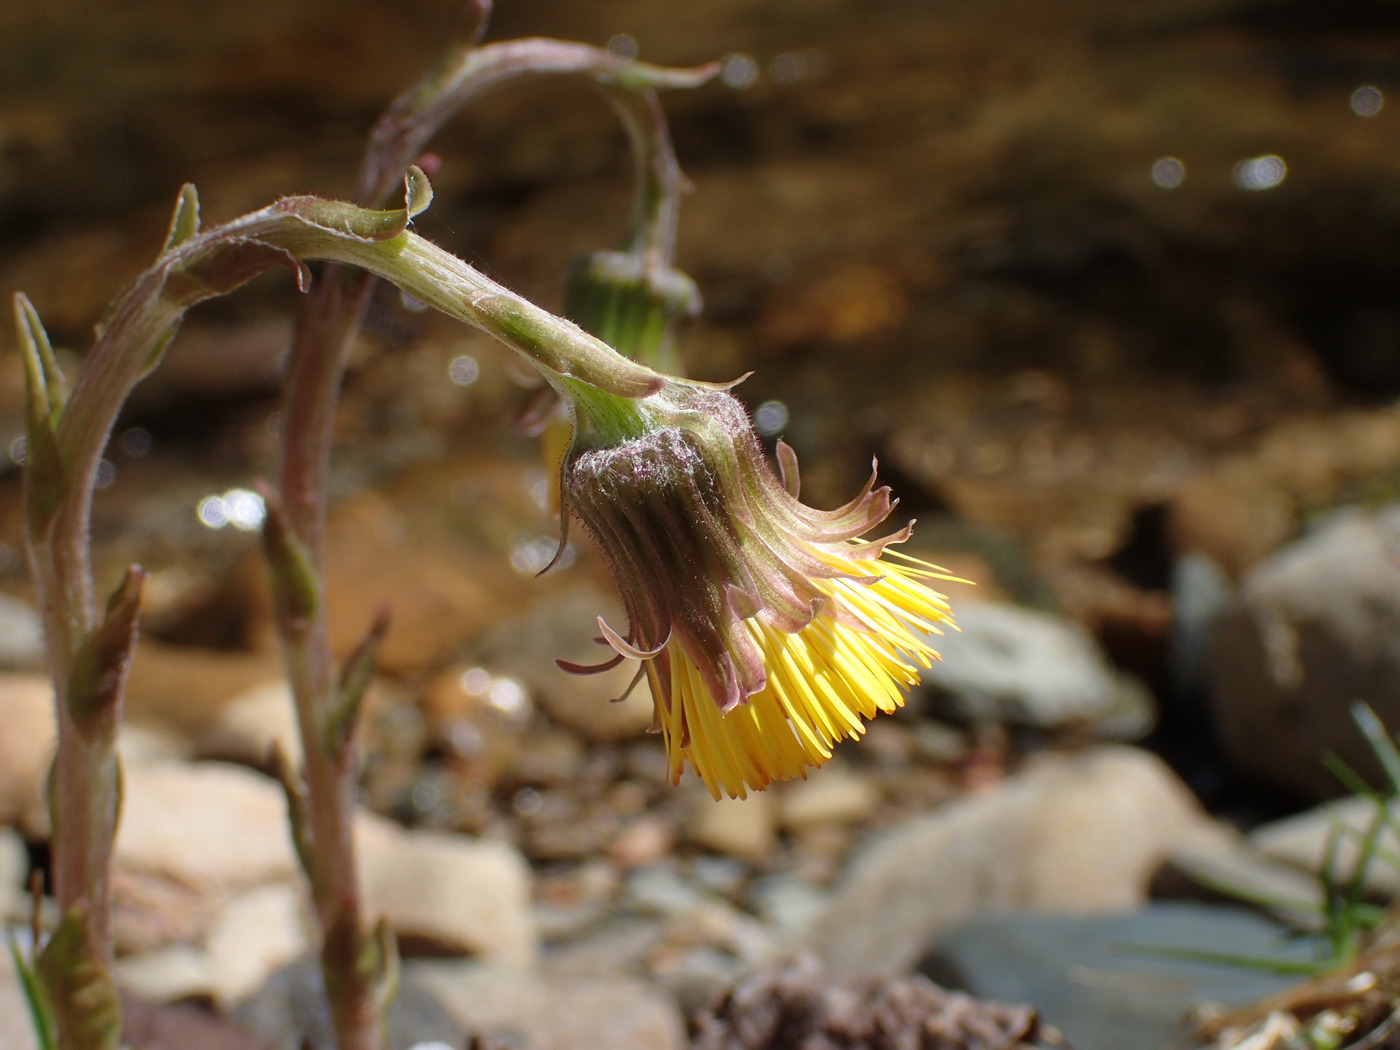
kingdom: Plantae
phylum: Tracheophyta
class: Magnoliopsida
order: Asterales
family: Asteraceae
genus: Tussilago
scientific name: Tussilago farfara
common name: Coltsfoot
